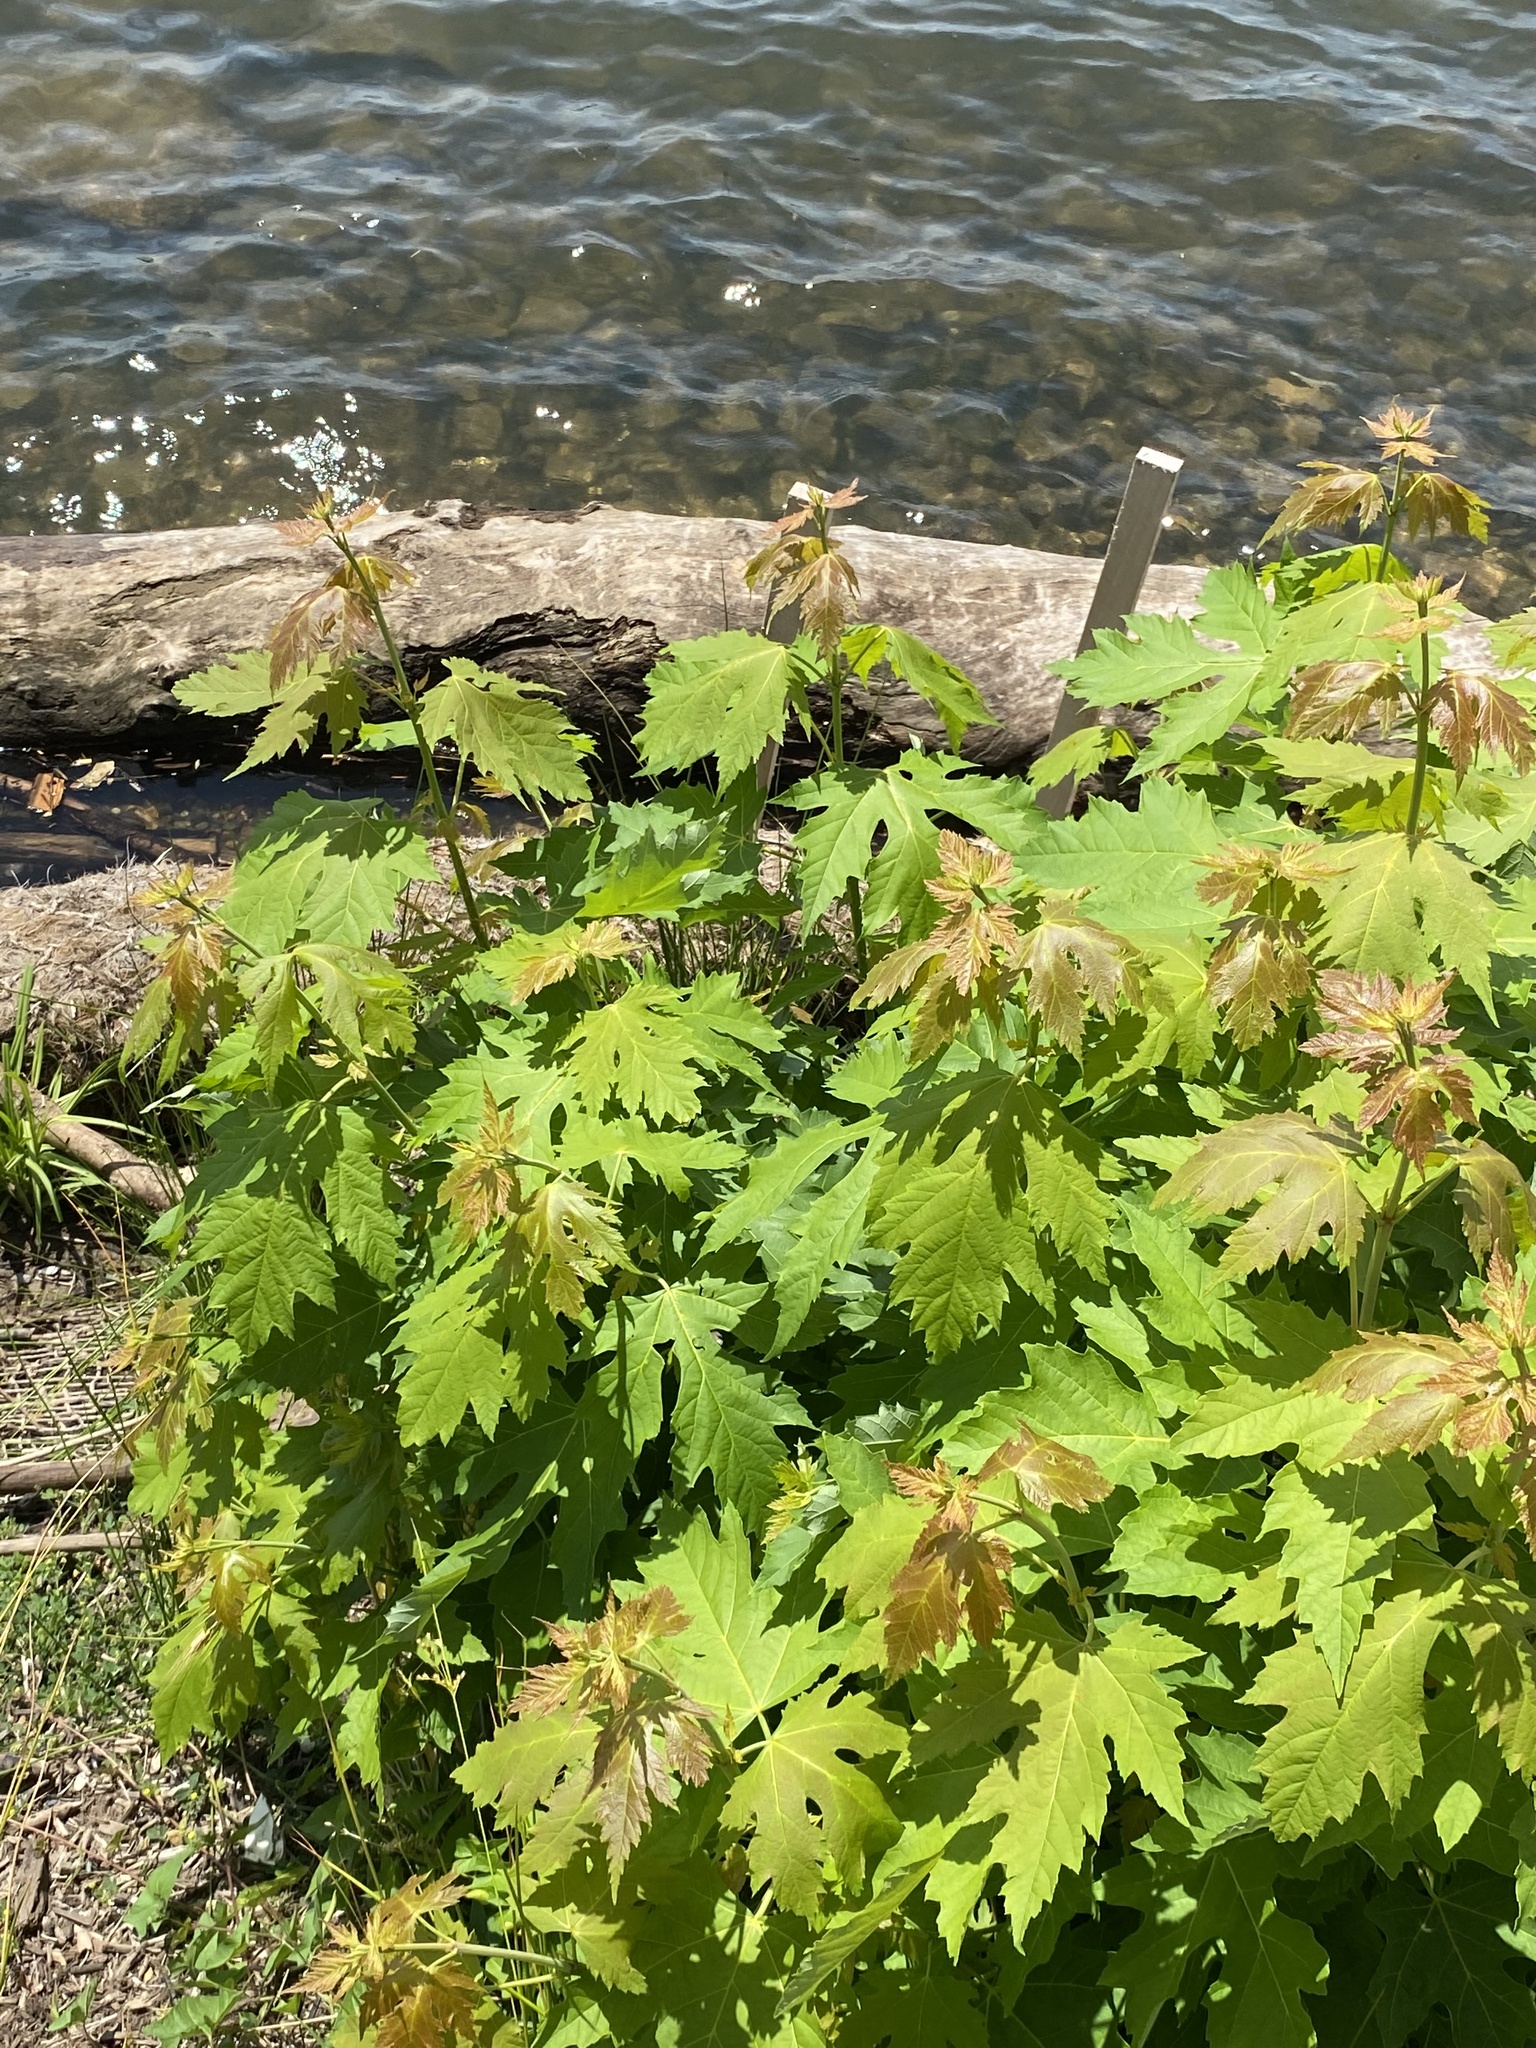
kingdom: Plantae
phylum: Tracheophyta
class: Magnoliopsida
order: Sapindales
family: Sapindaceae
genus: Acer
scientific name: Acer saccharinum
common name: Silver maple
